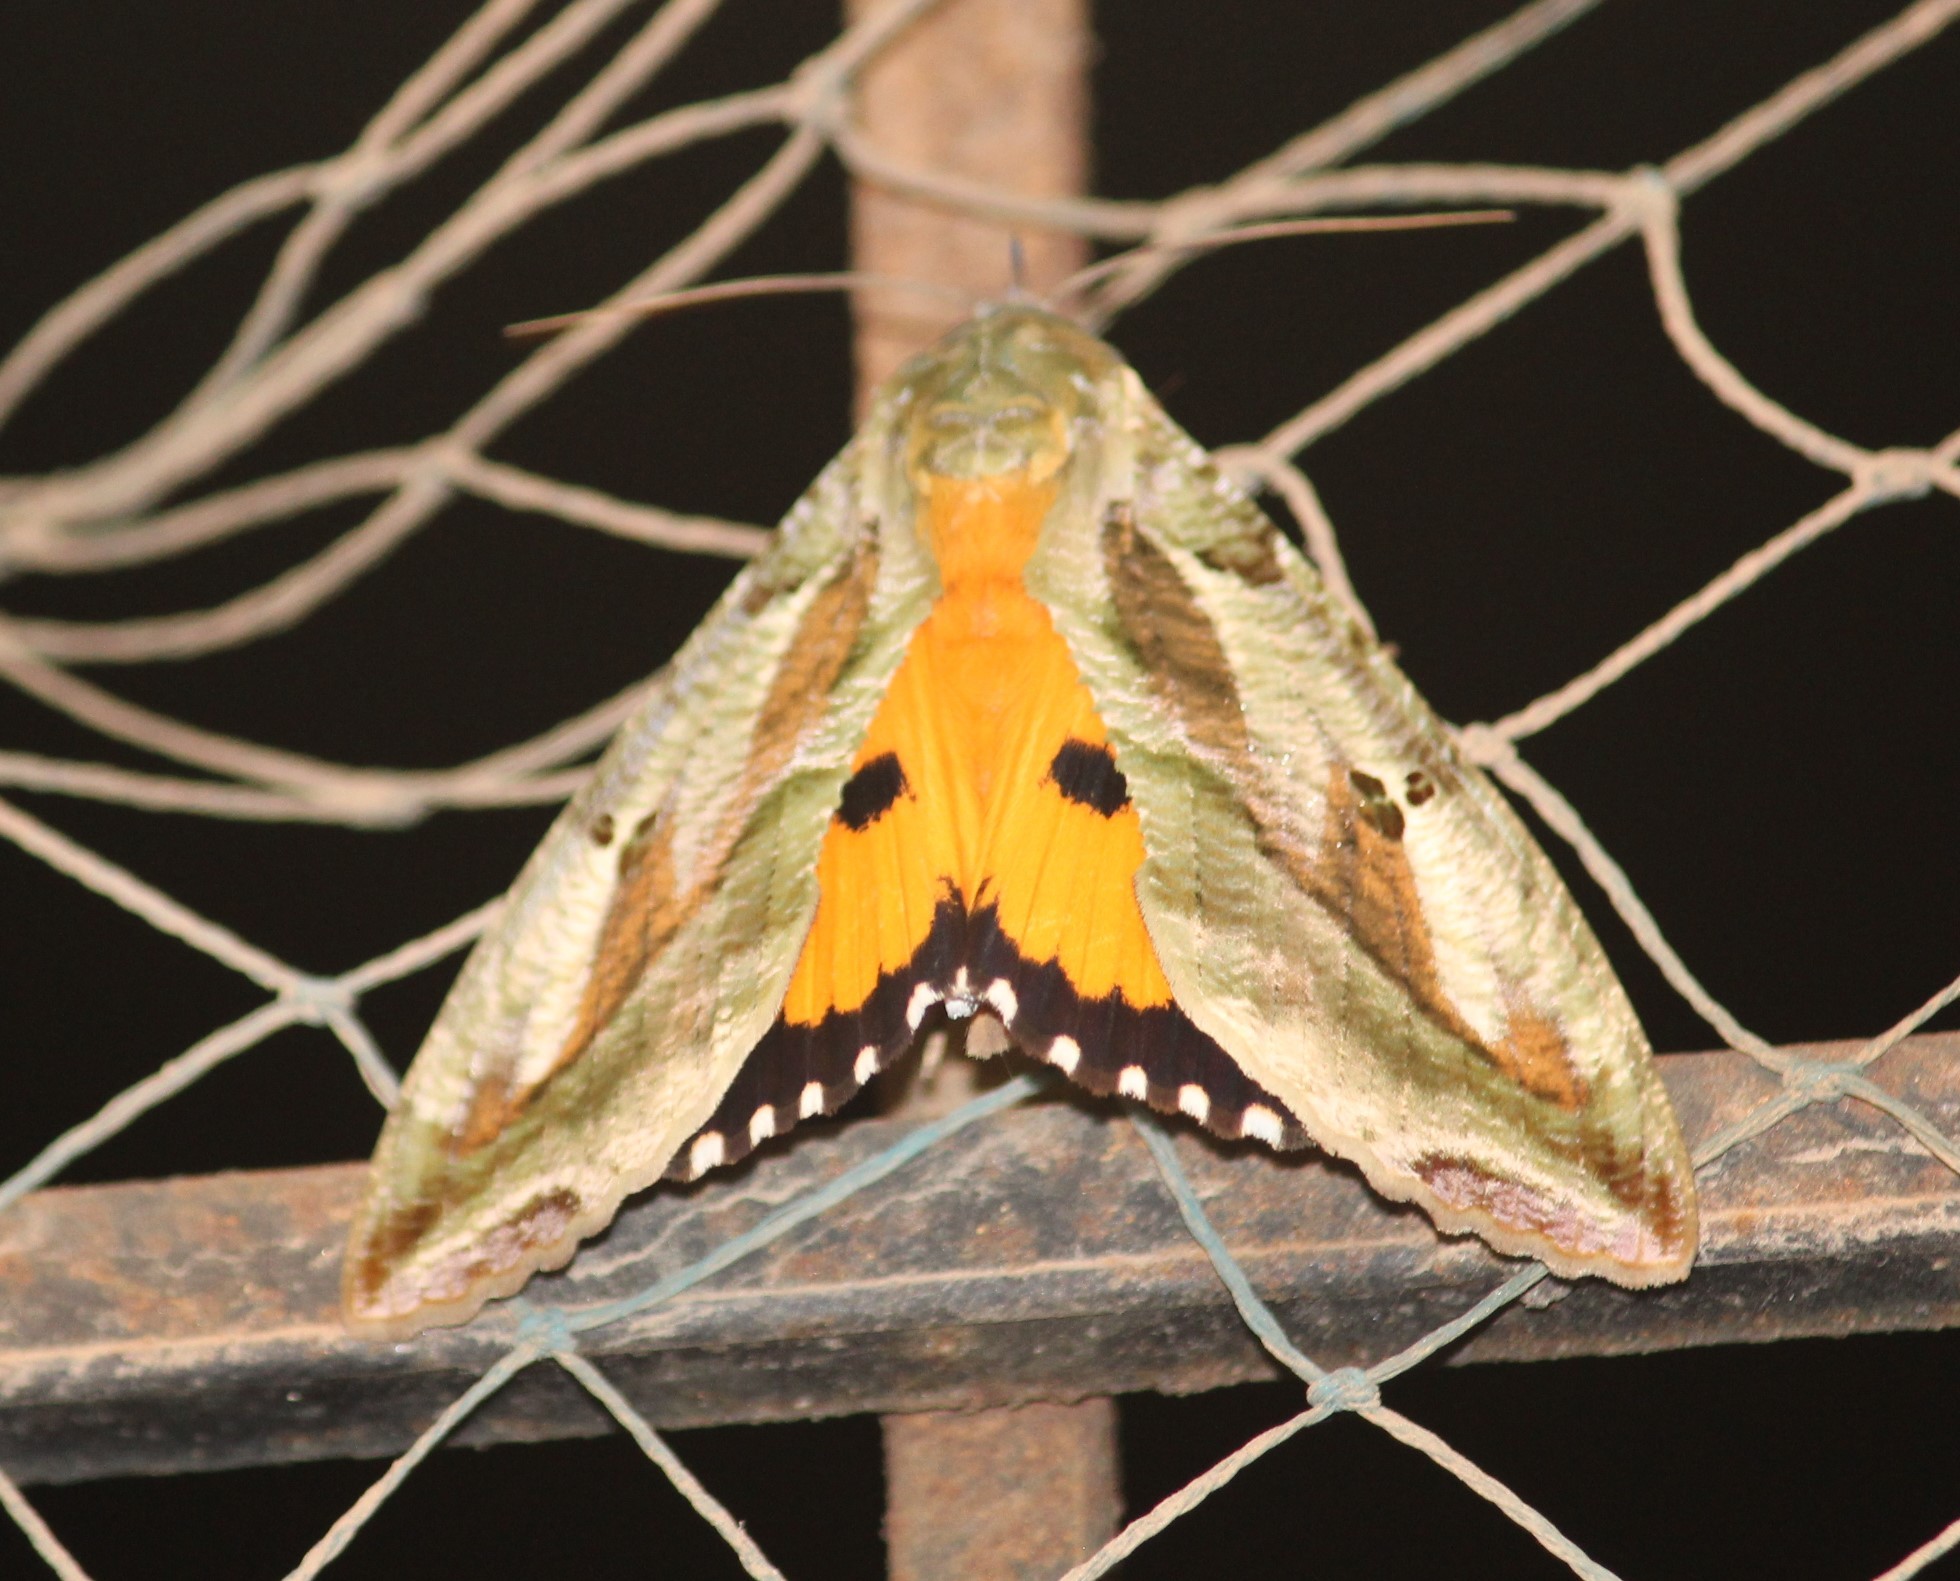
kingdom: Animalia
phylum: Arthropoda
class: Insecta
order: Lepidoptera
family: Erebidae
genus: Eudocima
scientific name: Eudocima materna
